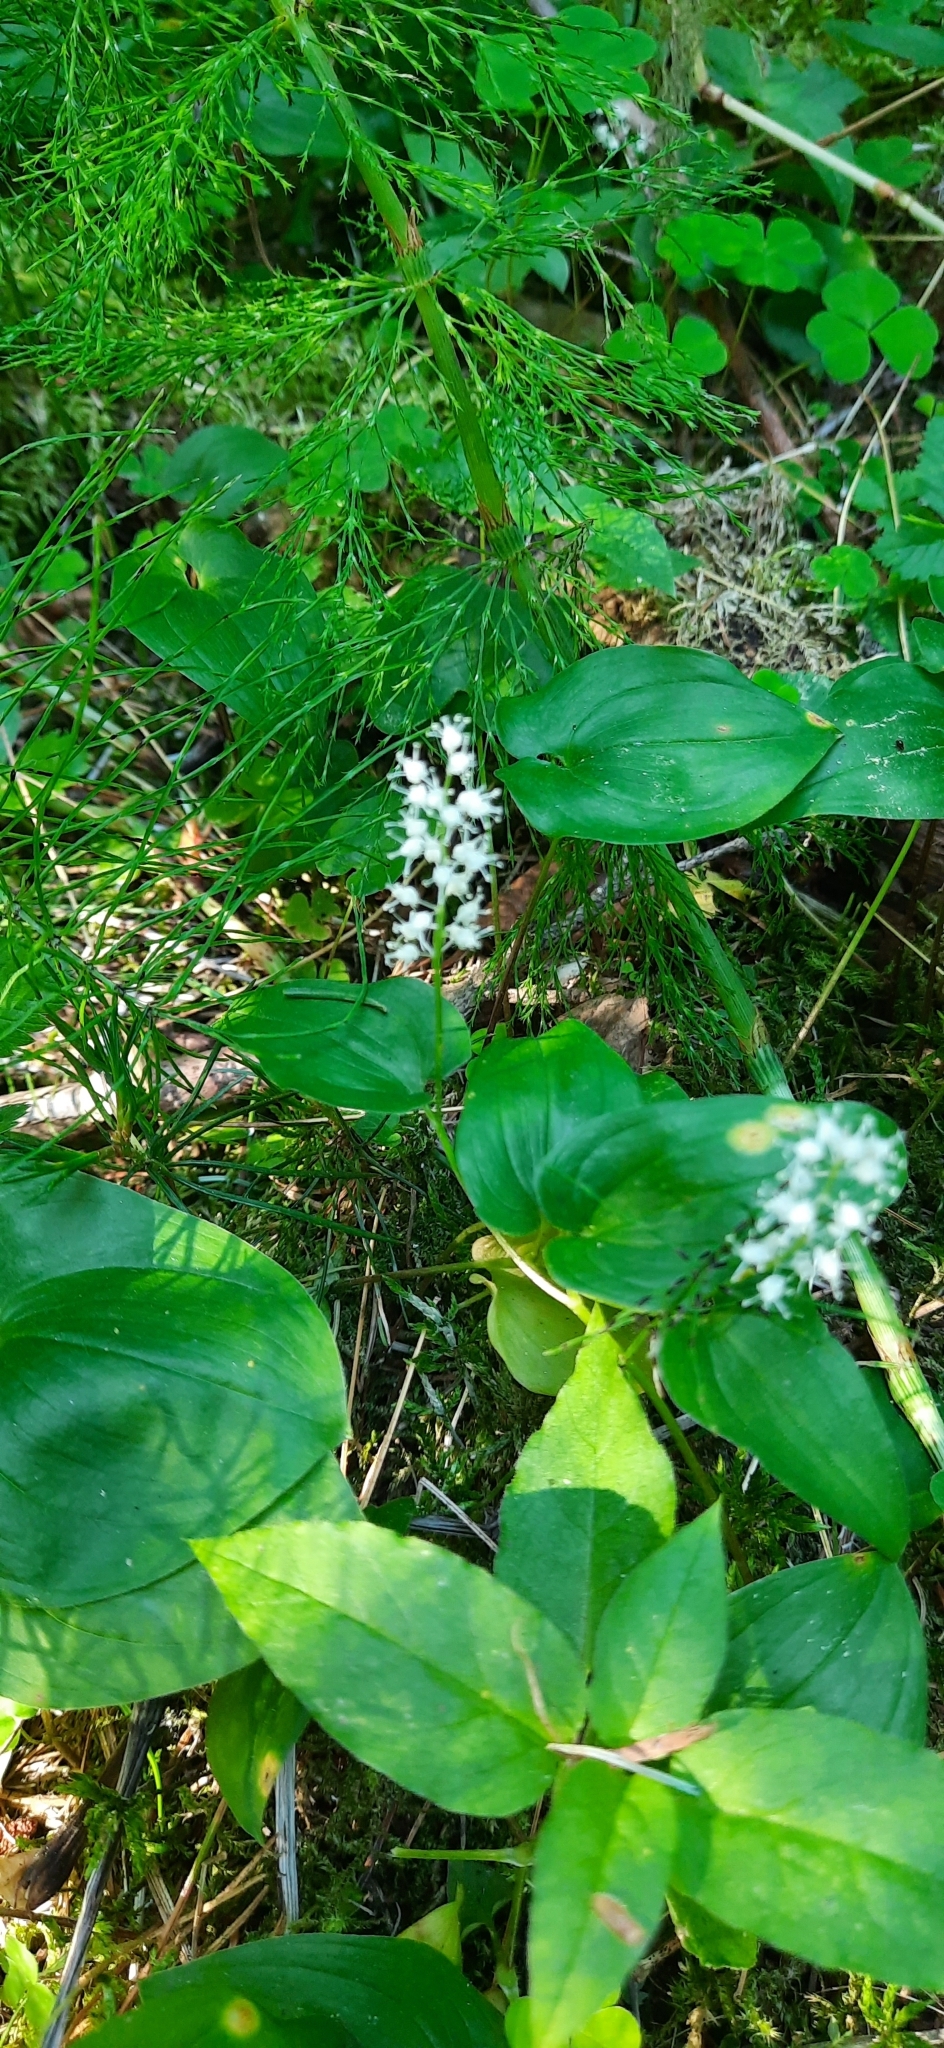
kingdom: Plantae
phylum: Tracheophyta
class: Liliopsida
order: Asparagales
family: Asparagaceae
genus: Maianthemum
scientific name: Maianthemum bifolium
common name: May lily
